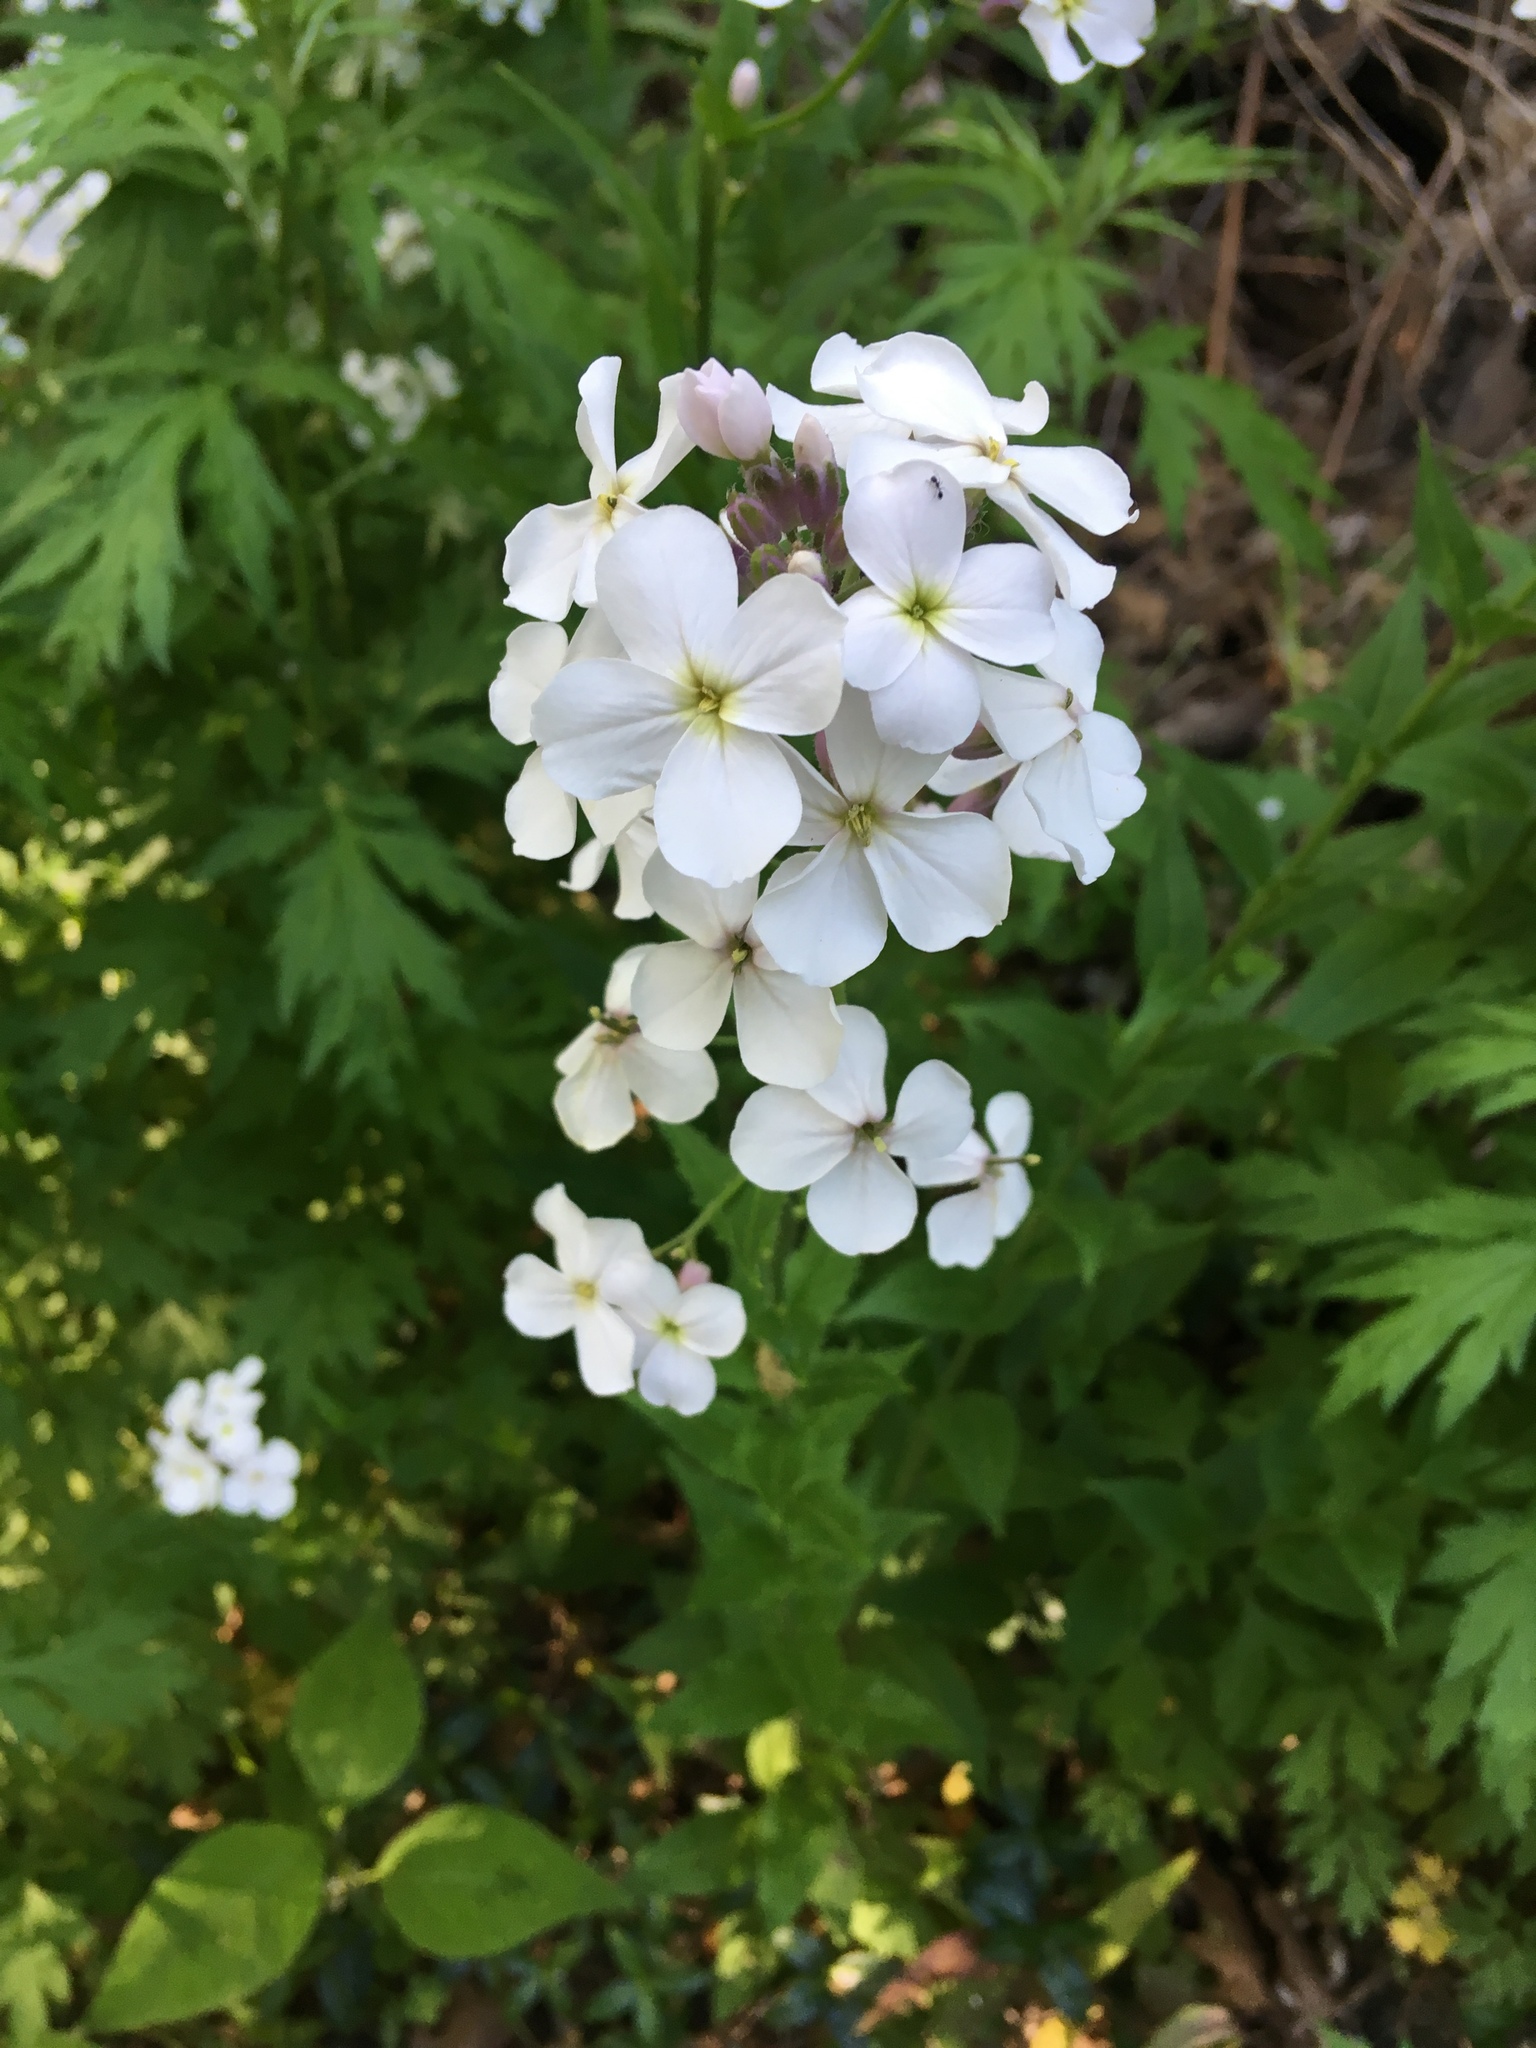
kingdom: Plantae
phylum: Tracheophyta
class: Magnoliopsida
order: Brassicales
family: Brassicaceae
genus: Hesperis
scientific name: Hesperis matronalis
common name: Dame's-violet
